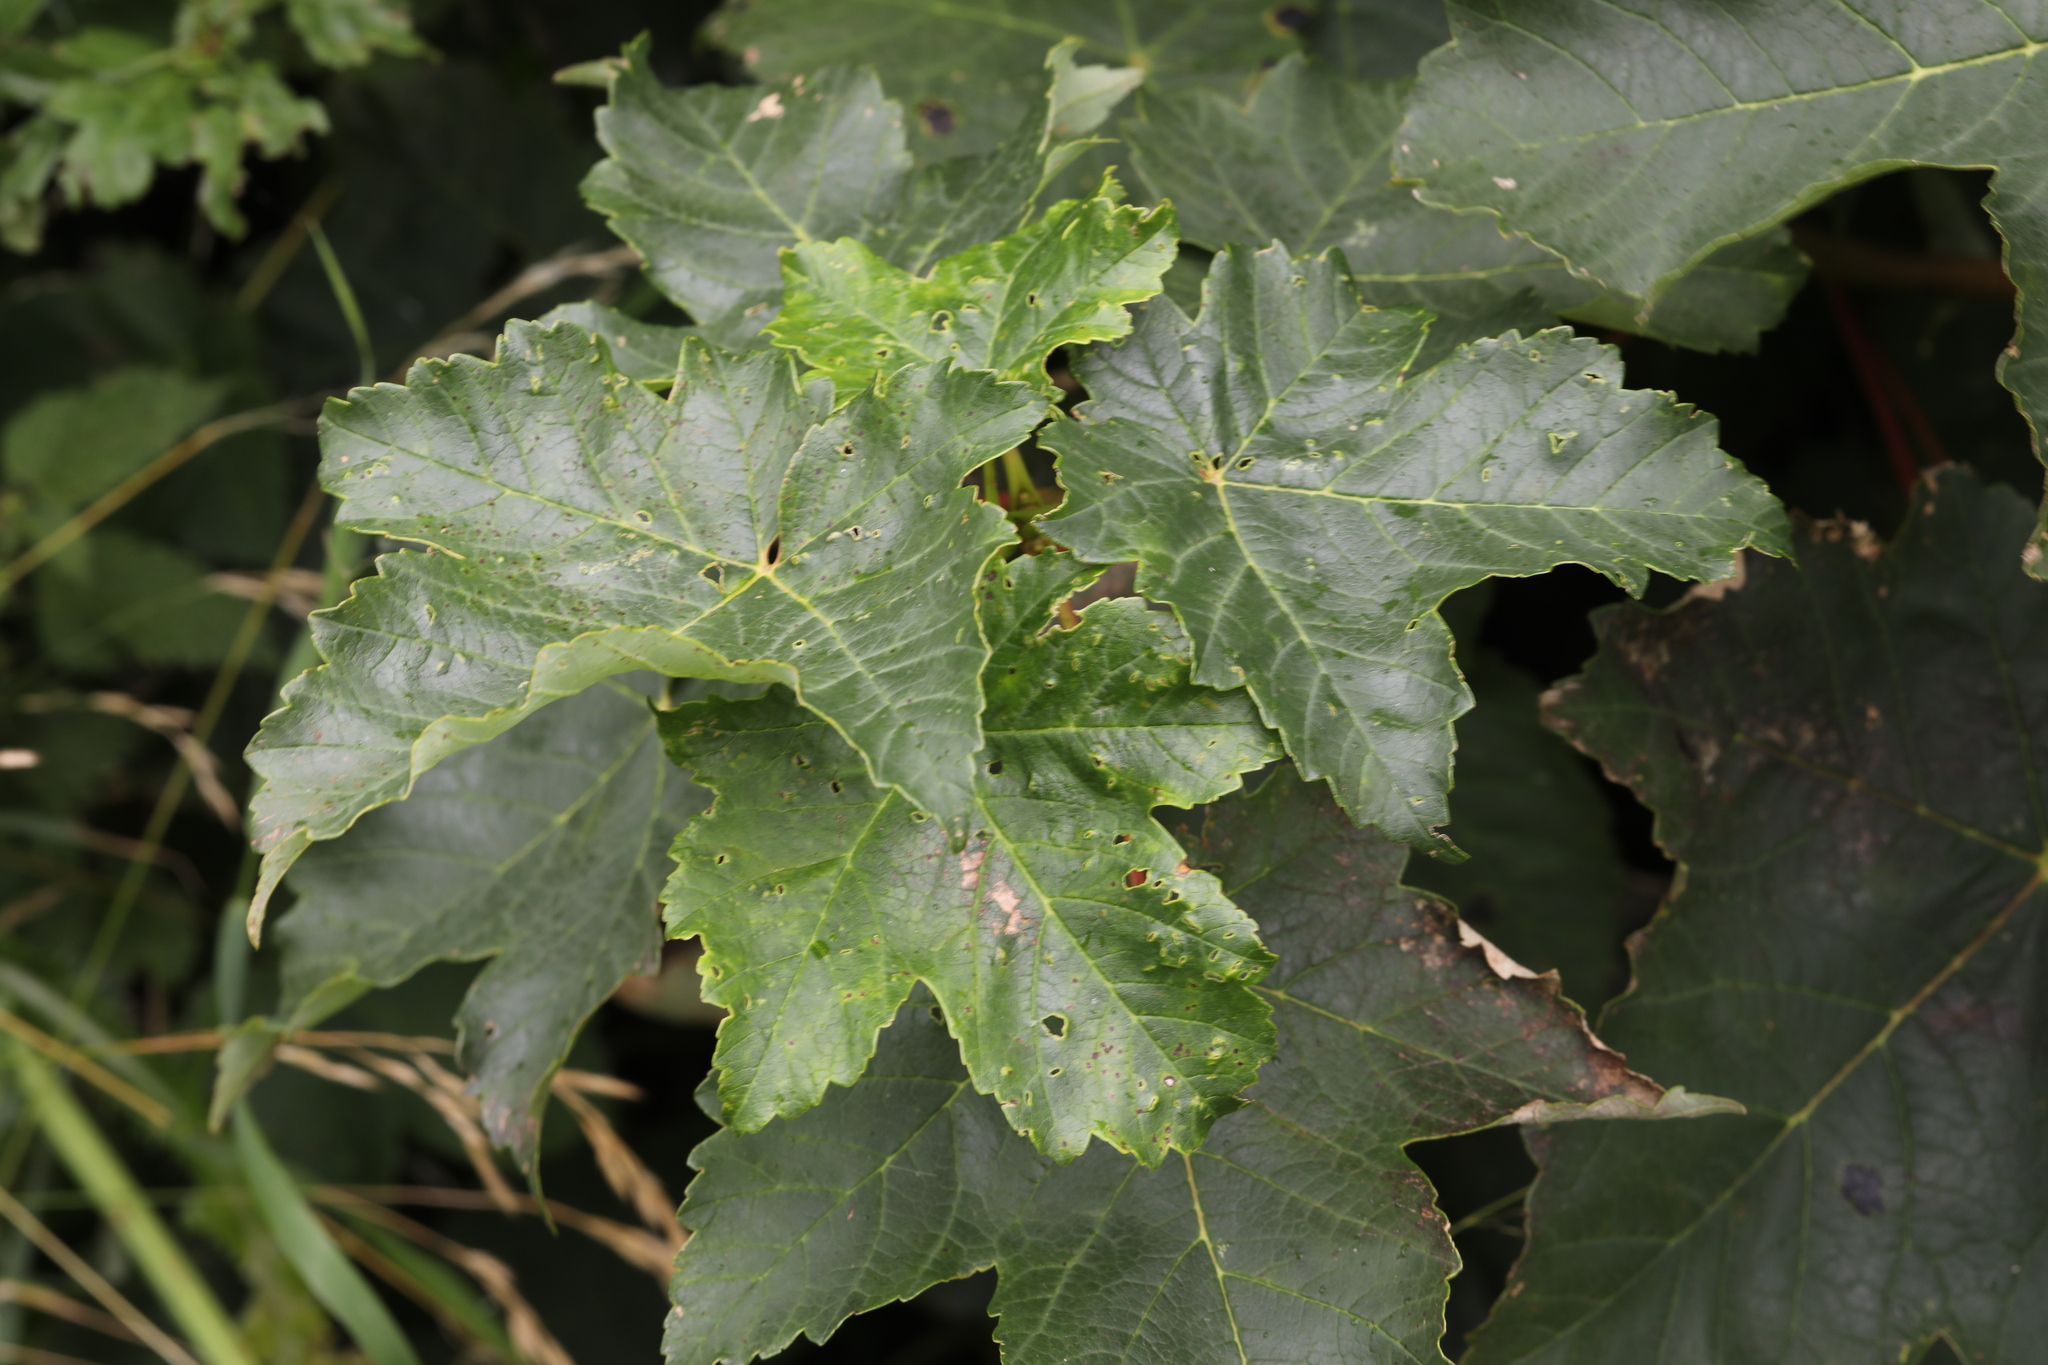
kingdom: Plantae
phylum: Tracheophyta
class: Magnoliopsida
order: Sapindales
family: Sapindaceae
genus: Acer
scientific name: Acer pseudoplatanus
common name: Sycamore
